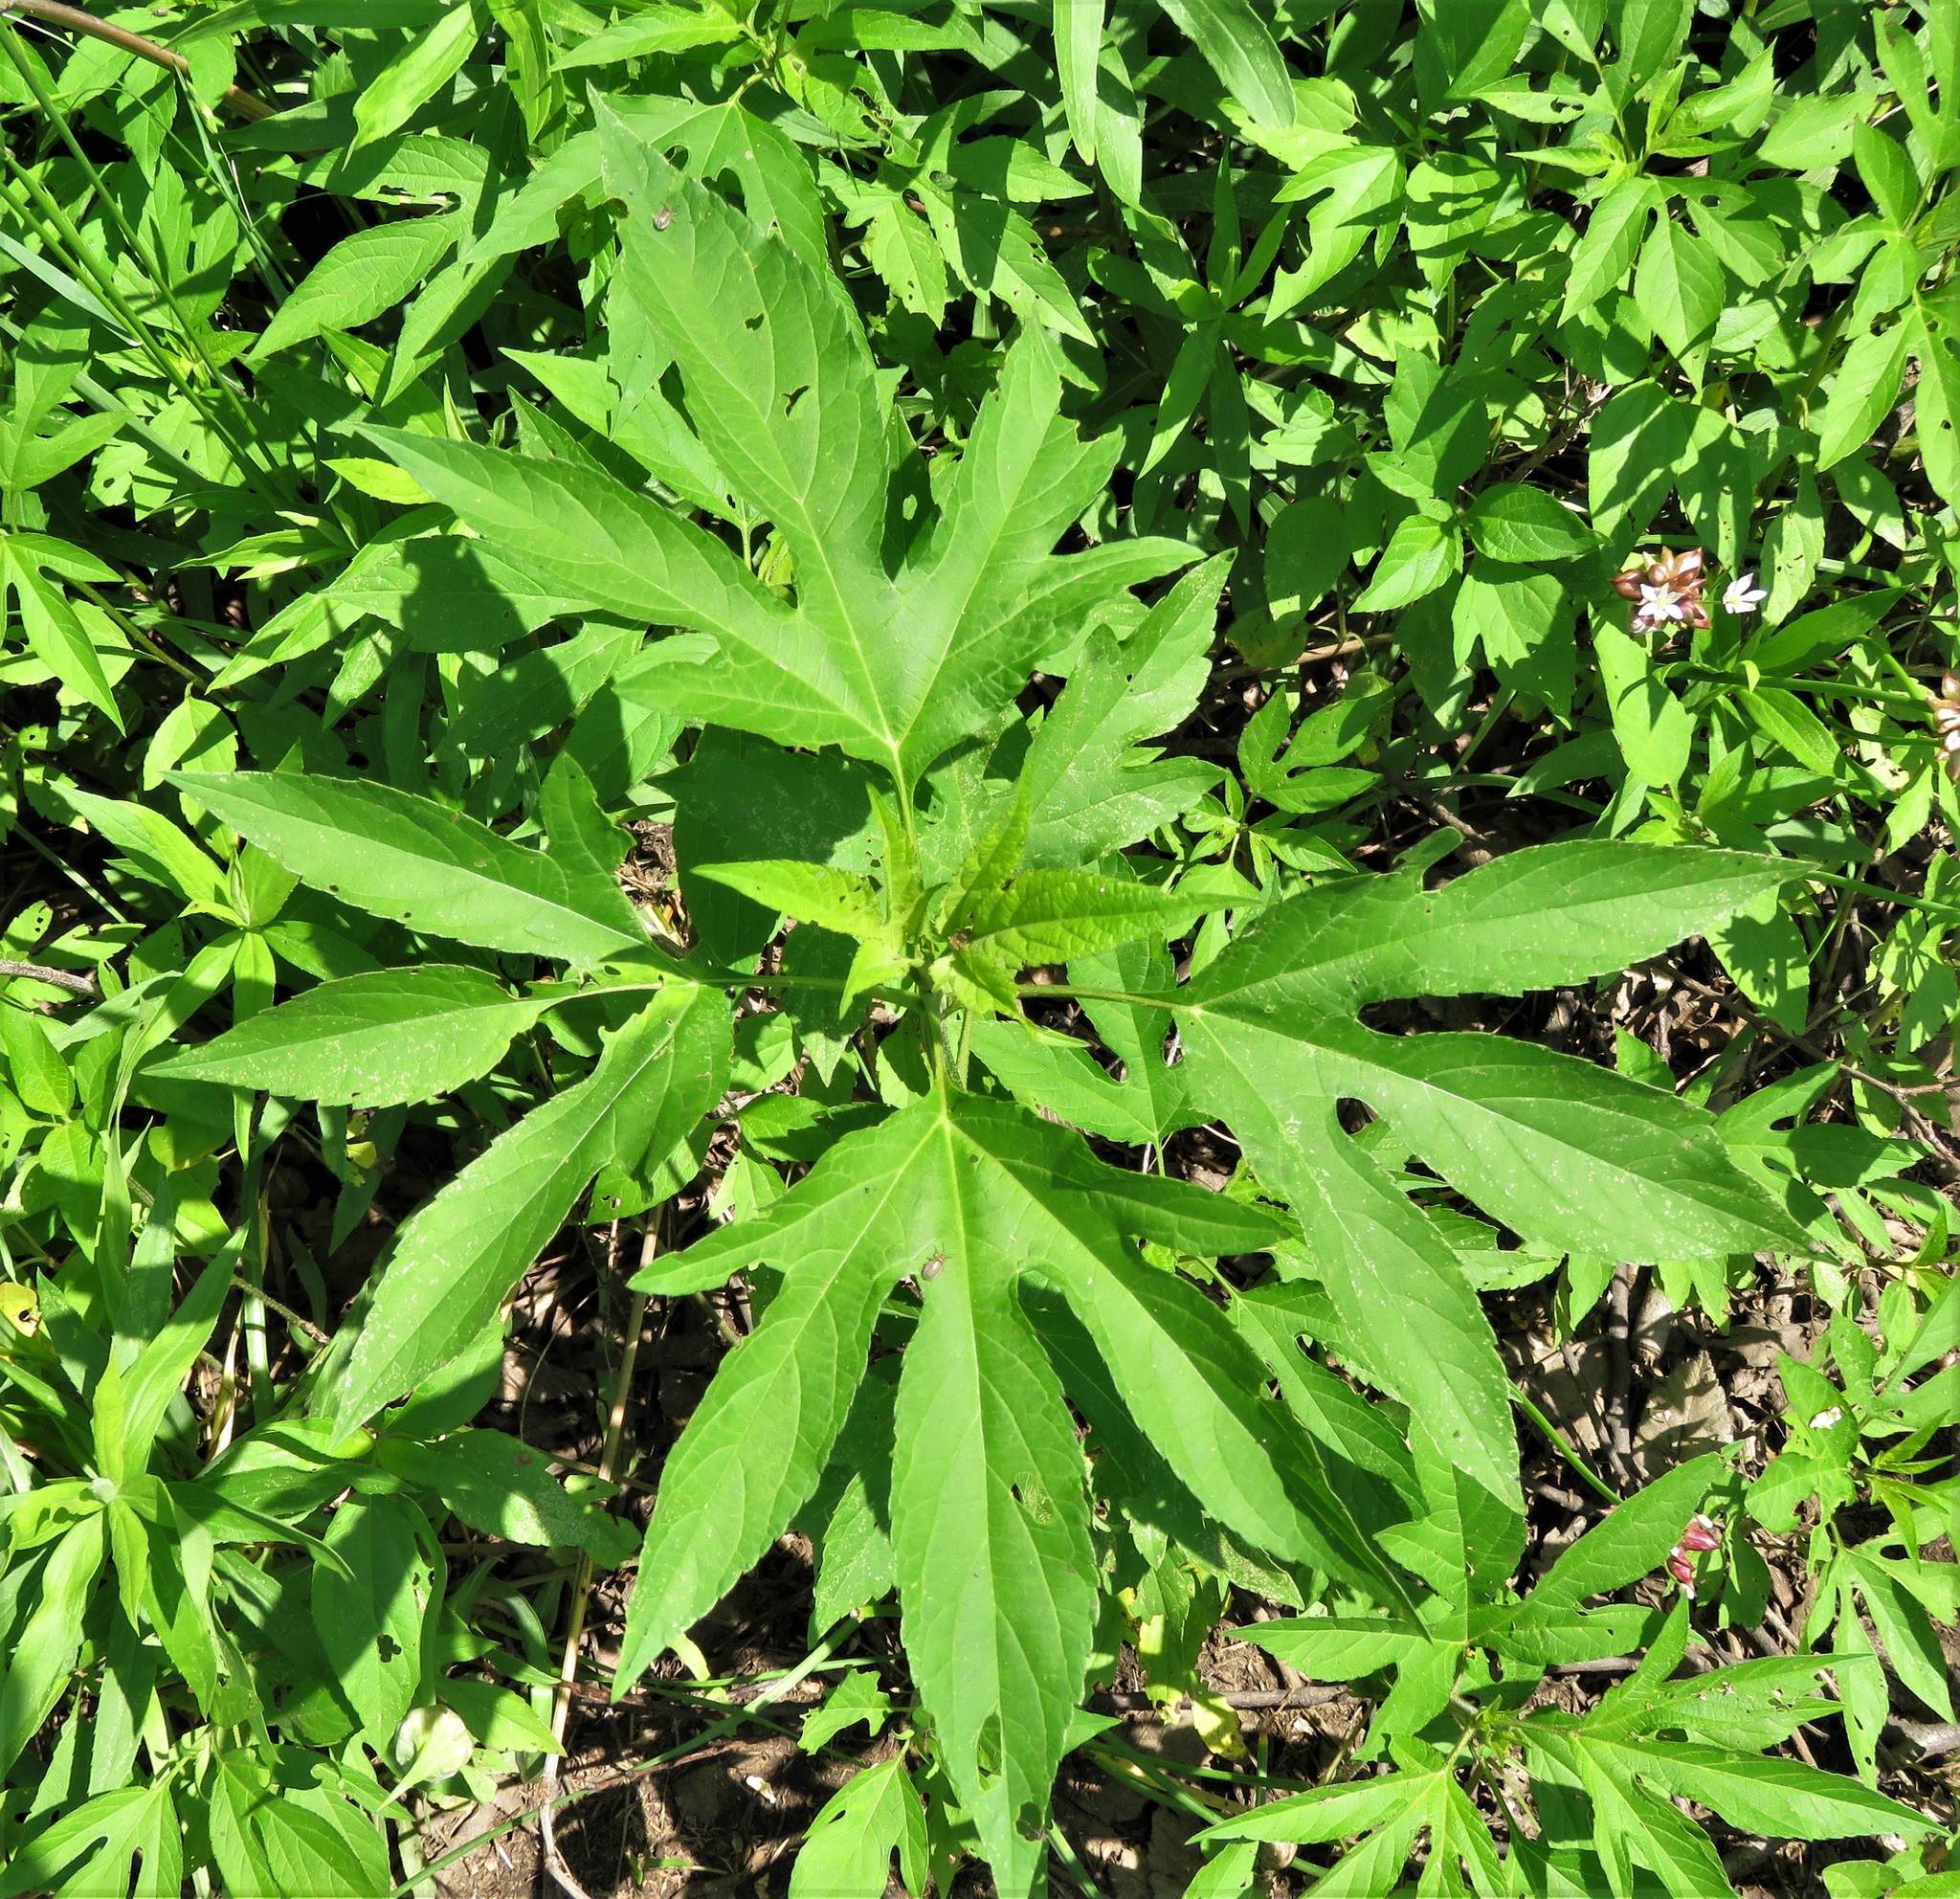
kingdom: Plantae
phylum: Tracheophyta
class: Magnoliopsida
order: Asterales
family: Asteraceae
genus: Ambrosia
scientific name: Ambrosia trifida
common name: Giant ragweed
